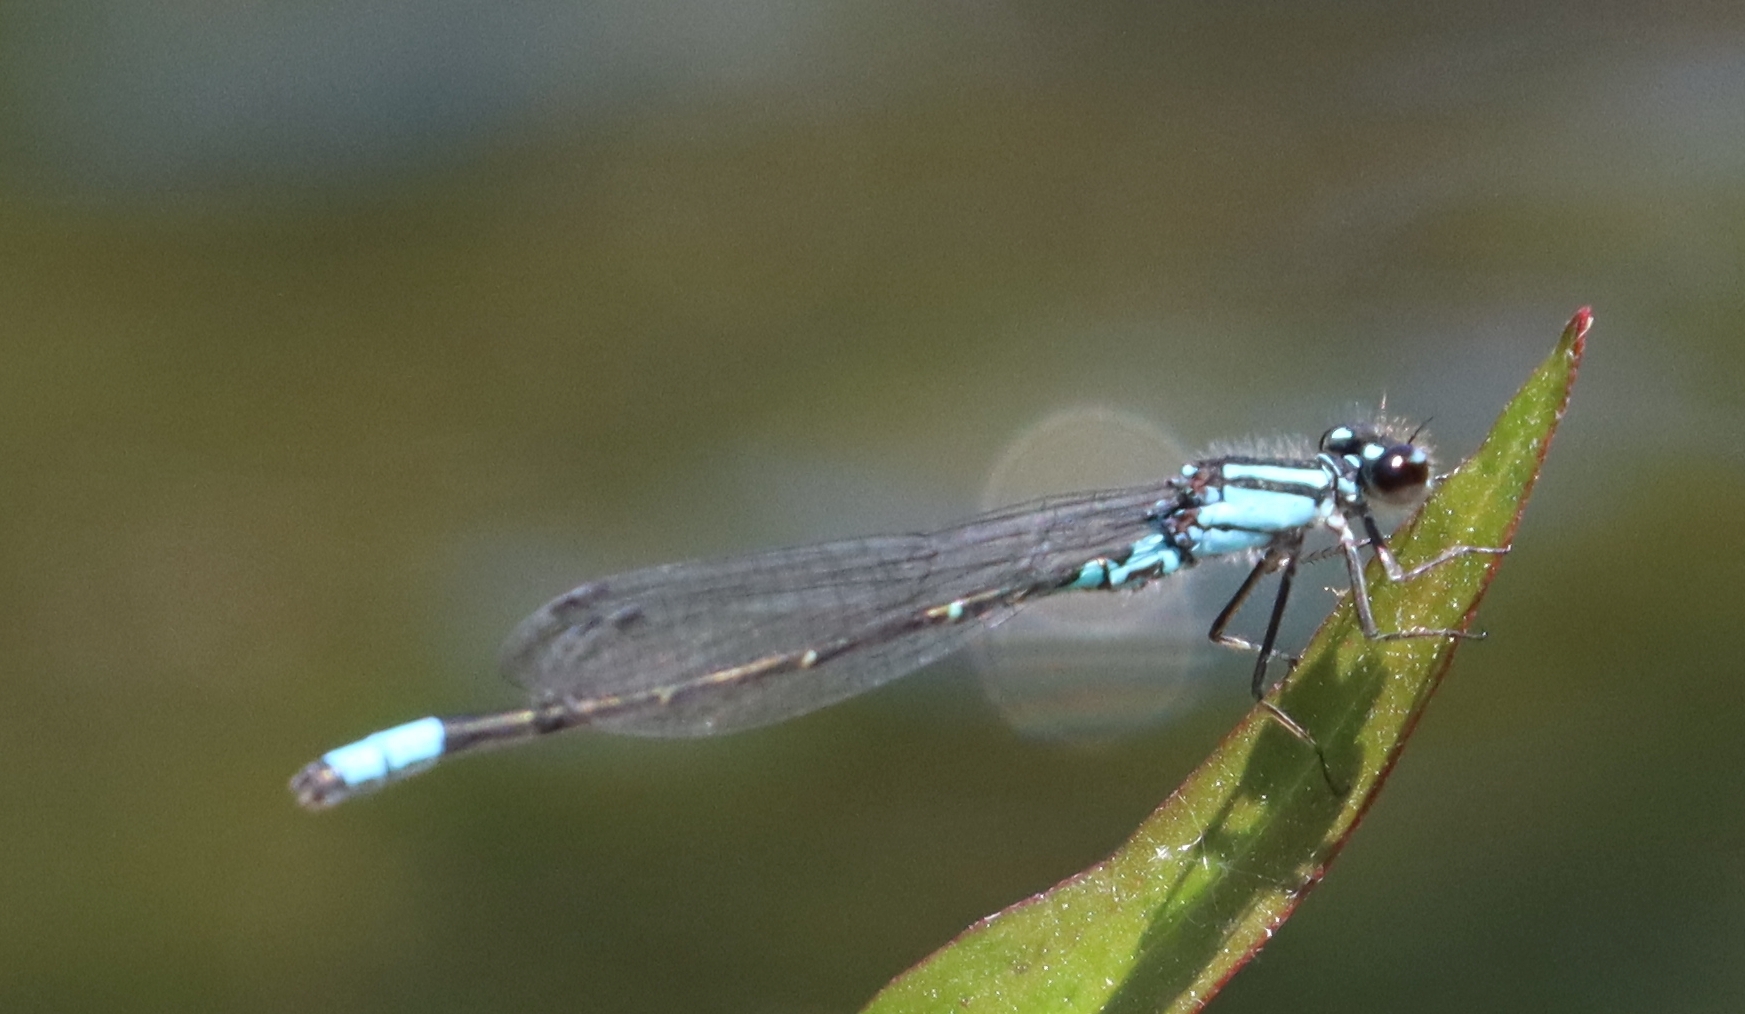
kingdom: Animalia
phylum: Arthropoda
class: Insecta
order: Odonata
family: Coenagrionidae
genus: Enallagma
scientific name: Enallagma geminatum
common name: Skimming bluet
